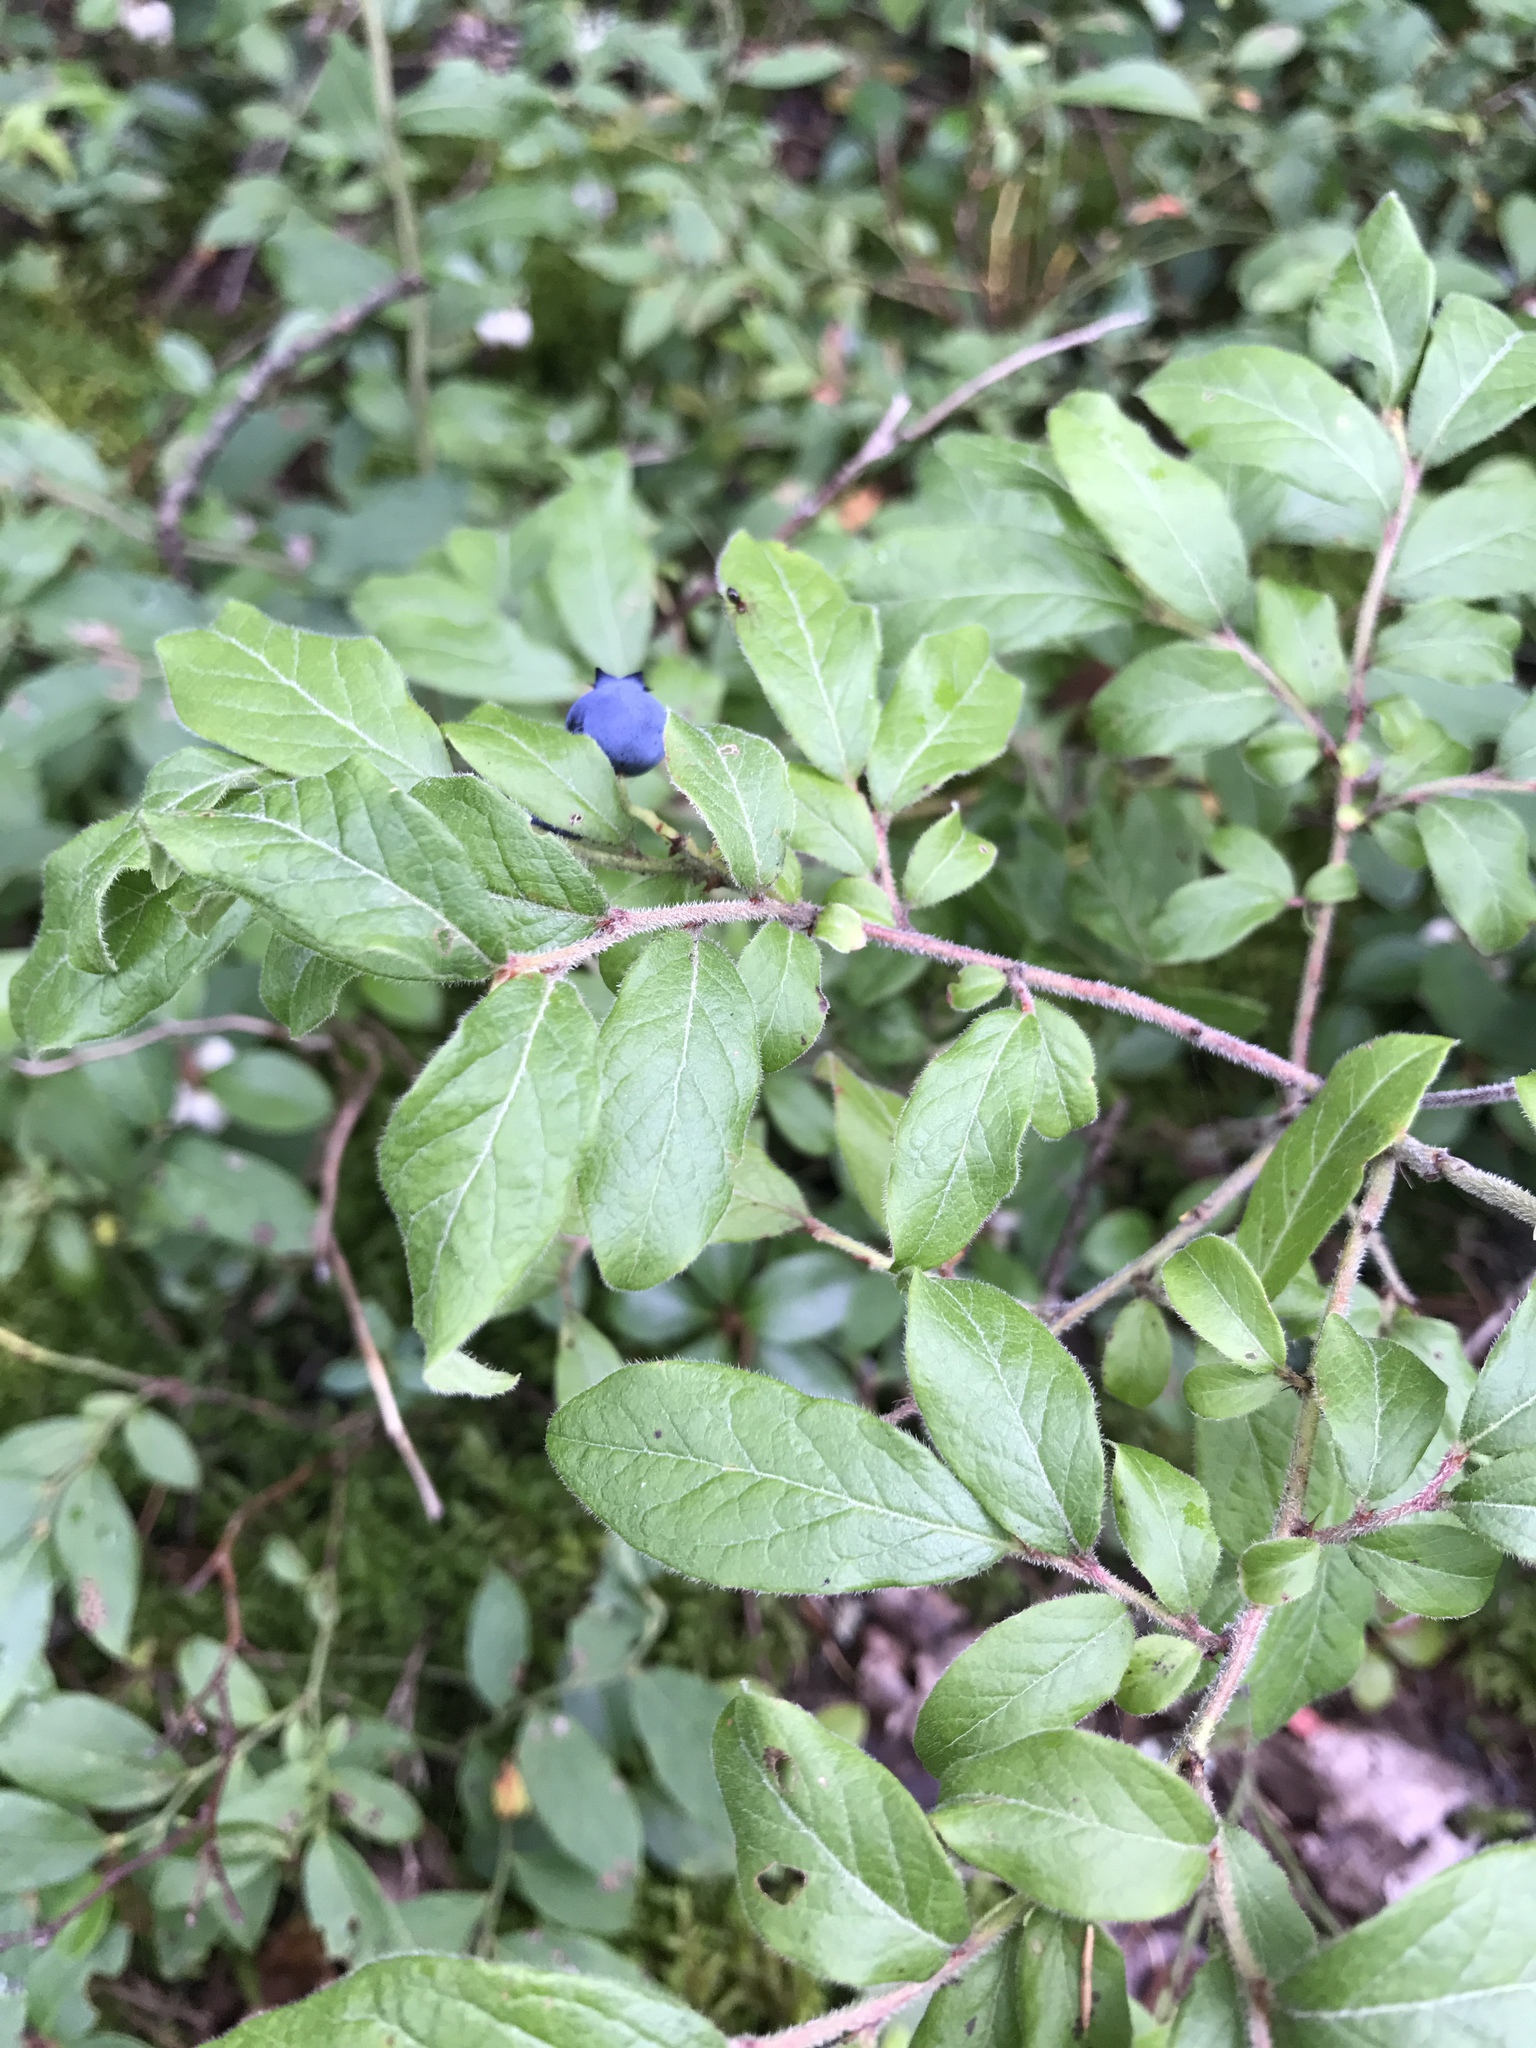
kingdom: Plantae
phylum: Tracheophyta
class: Magnoliopsida
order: Ericales
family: Ericaceae
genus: Vaccinium
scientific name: Vaccinium myrtilloides
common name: Canada blueberry
